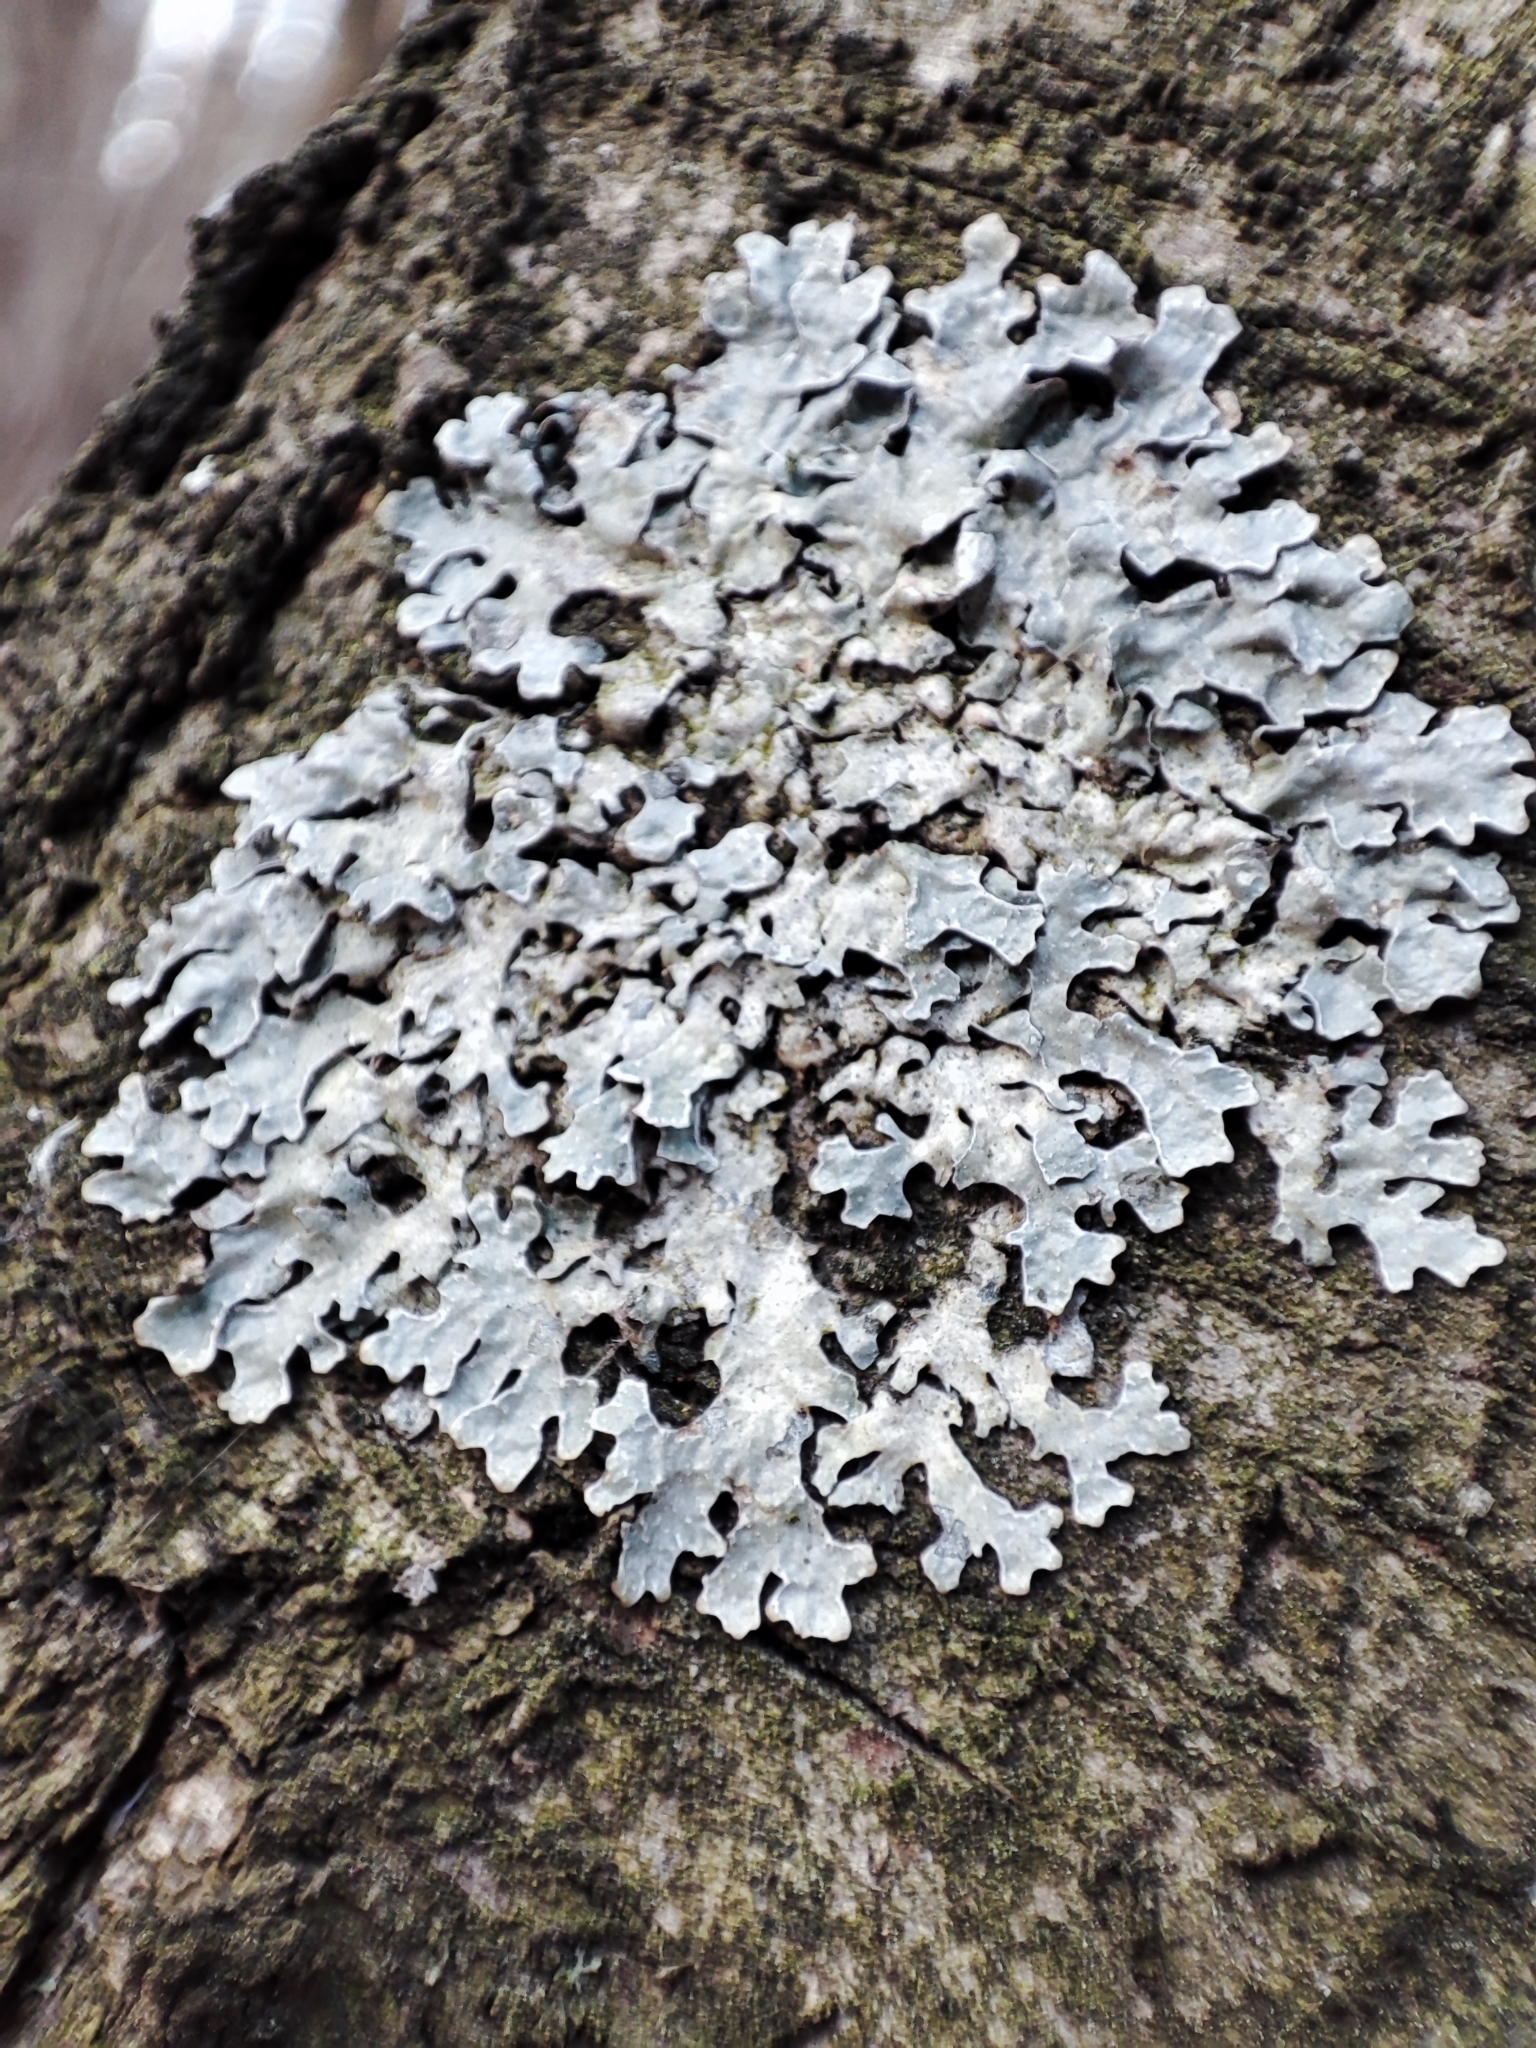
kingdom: Fungi
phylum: Ascomycota
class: Lecanoromycetes
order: Lecanorales
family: Parmeliaceae
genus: Parmelia
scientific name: Parmelia sulcata
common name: Netted shield lichen
